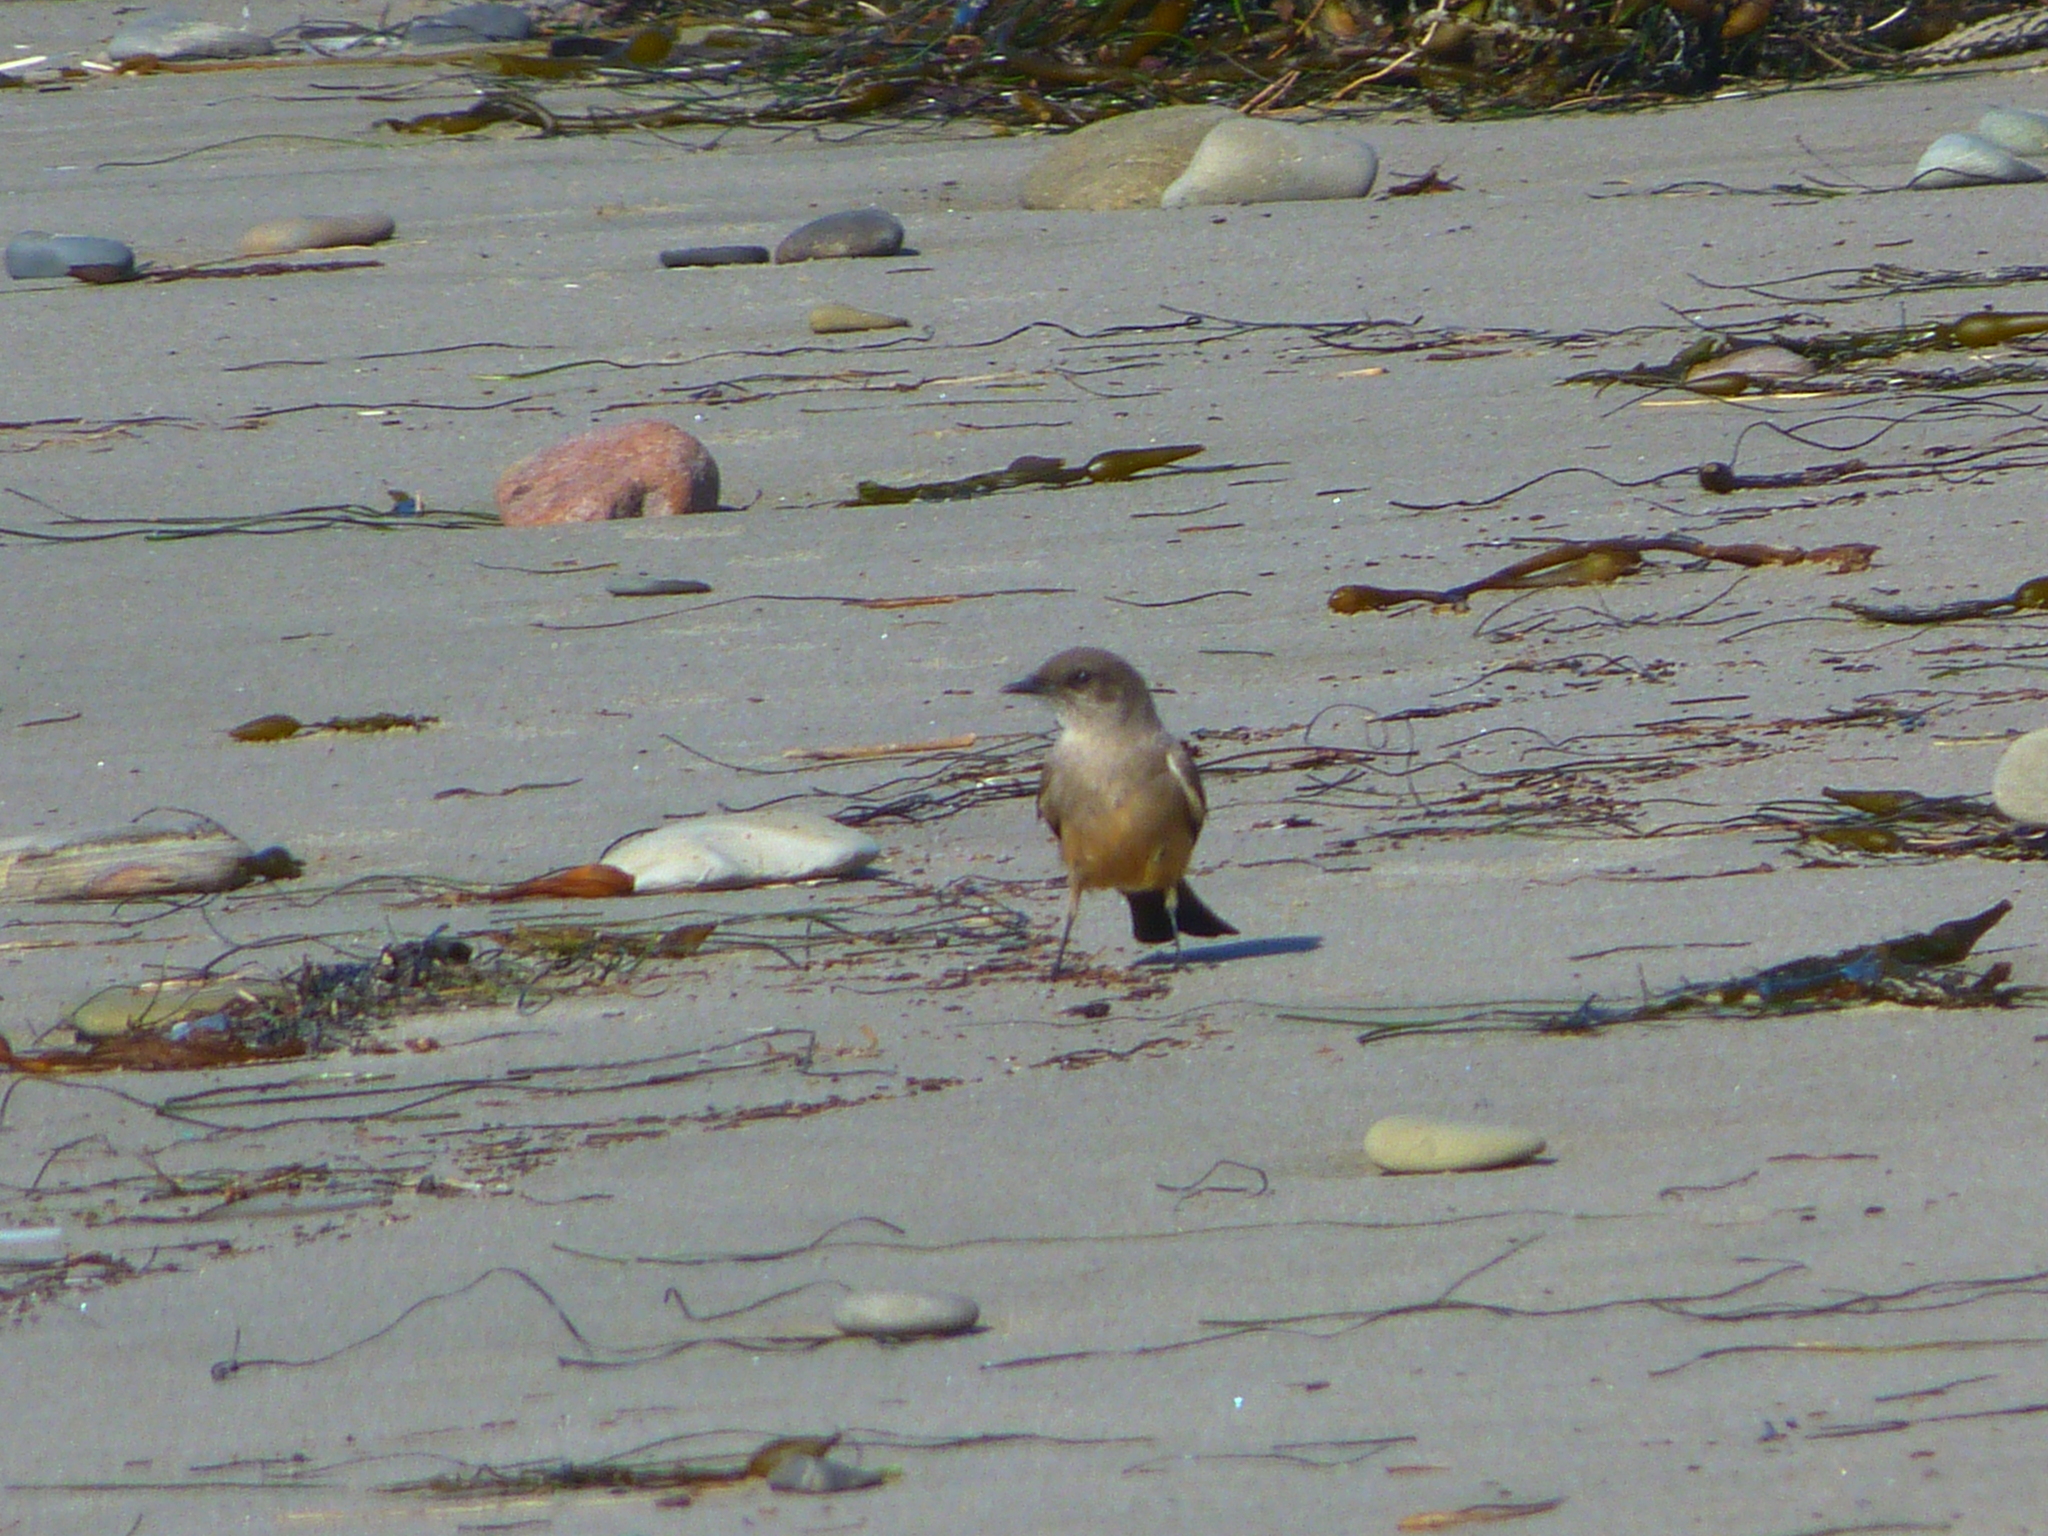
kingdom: Animalia
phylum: Chordata
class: Aves
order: Passeriformes
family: Tyrannidae
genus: Sayornis
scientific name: Sayornis saya
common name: Say's phoebe
